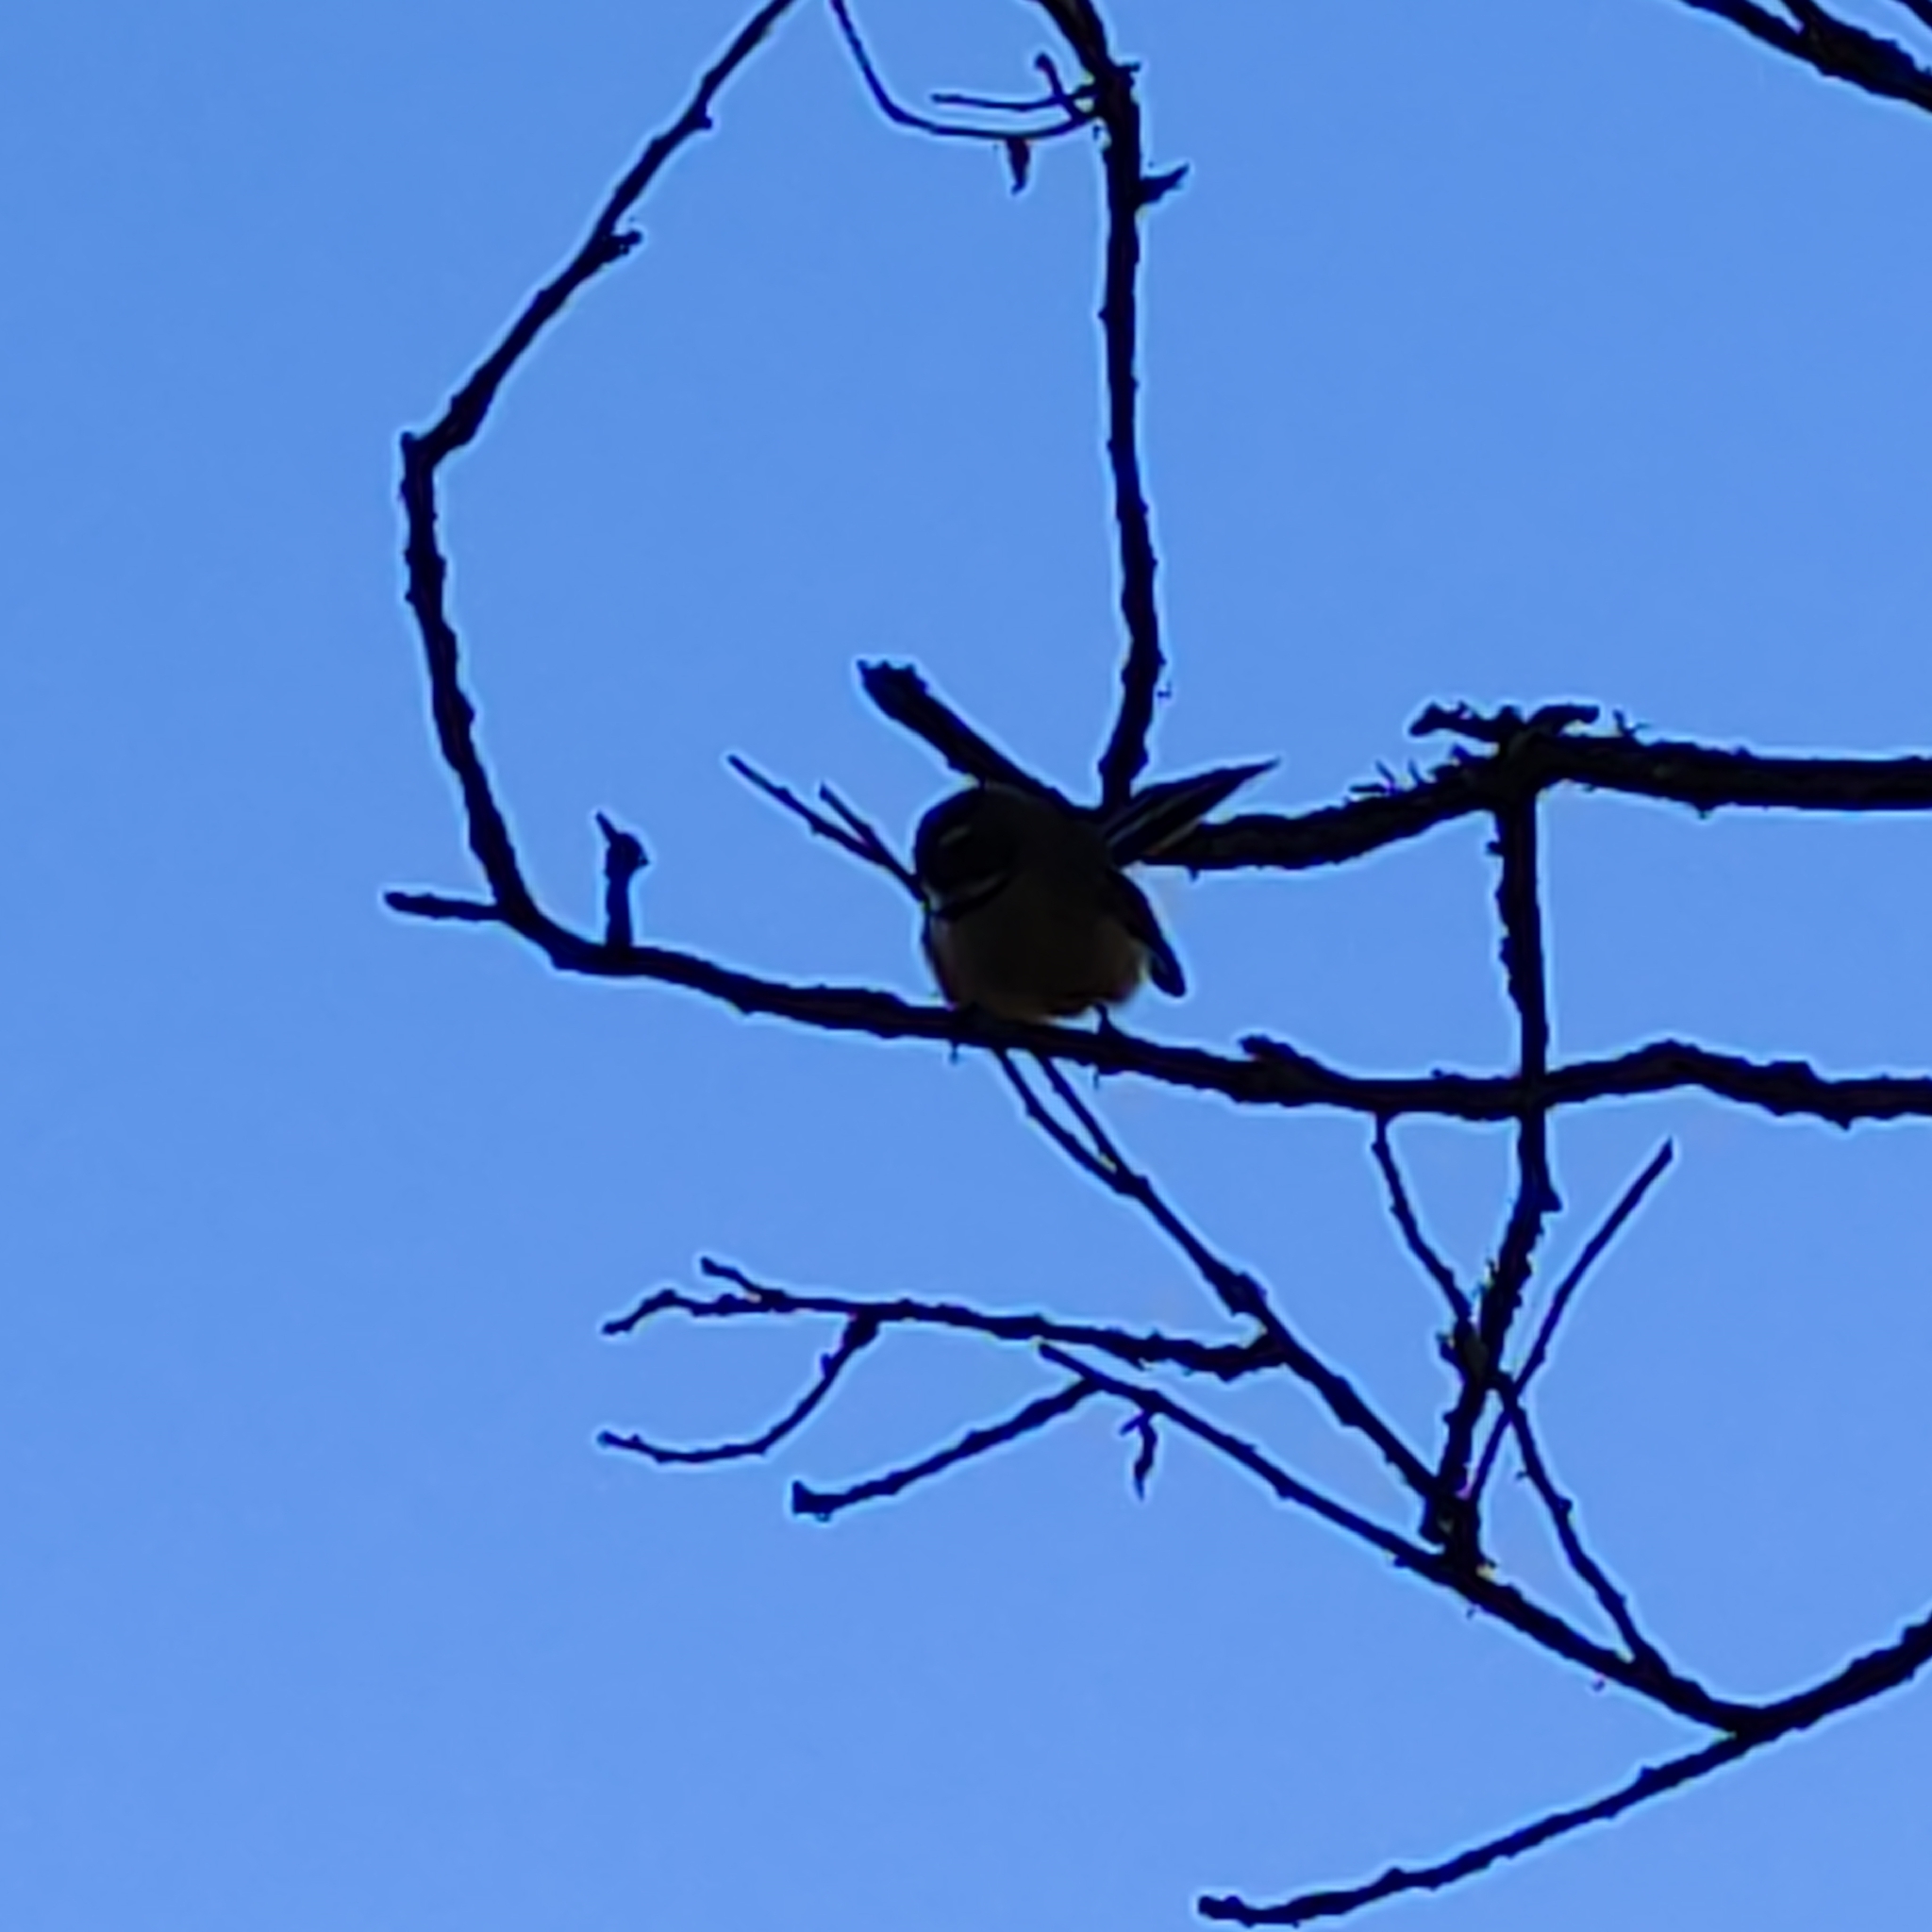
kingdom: Animalia
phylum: Chordata
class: Aves
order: Passeriformes
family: Rhipiduridae
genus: Rhipidura
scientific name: Rhipidura fuliginosa
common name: New zealand fantail
